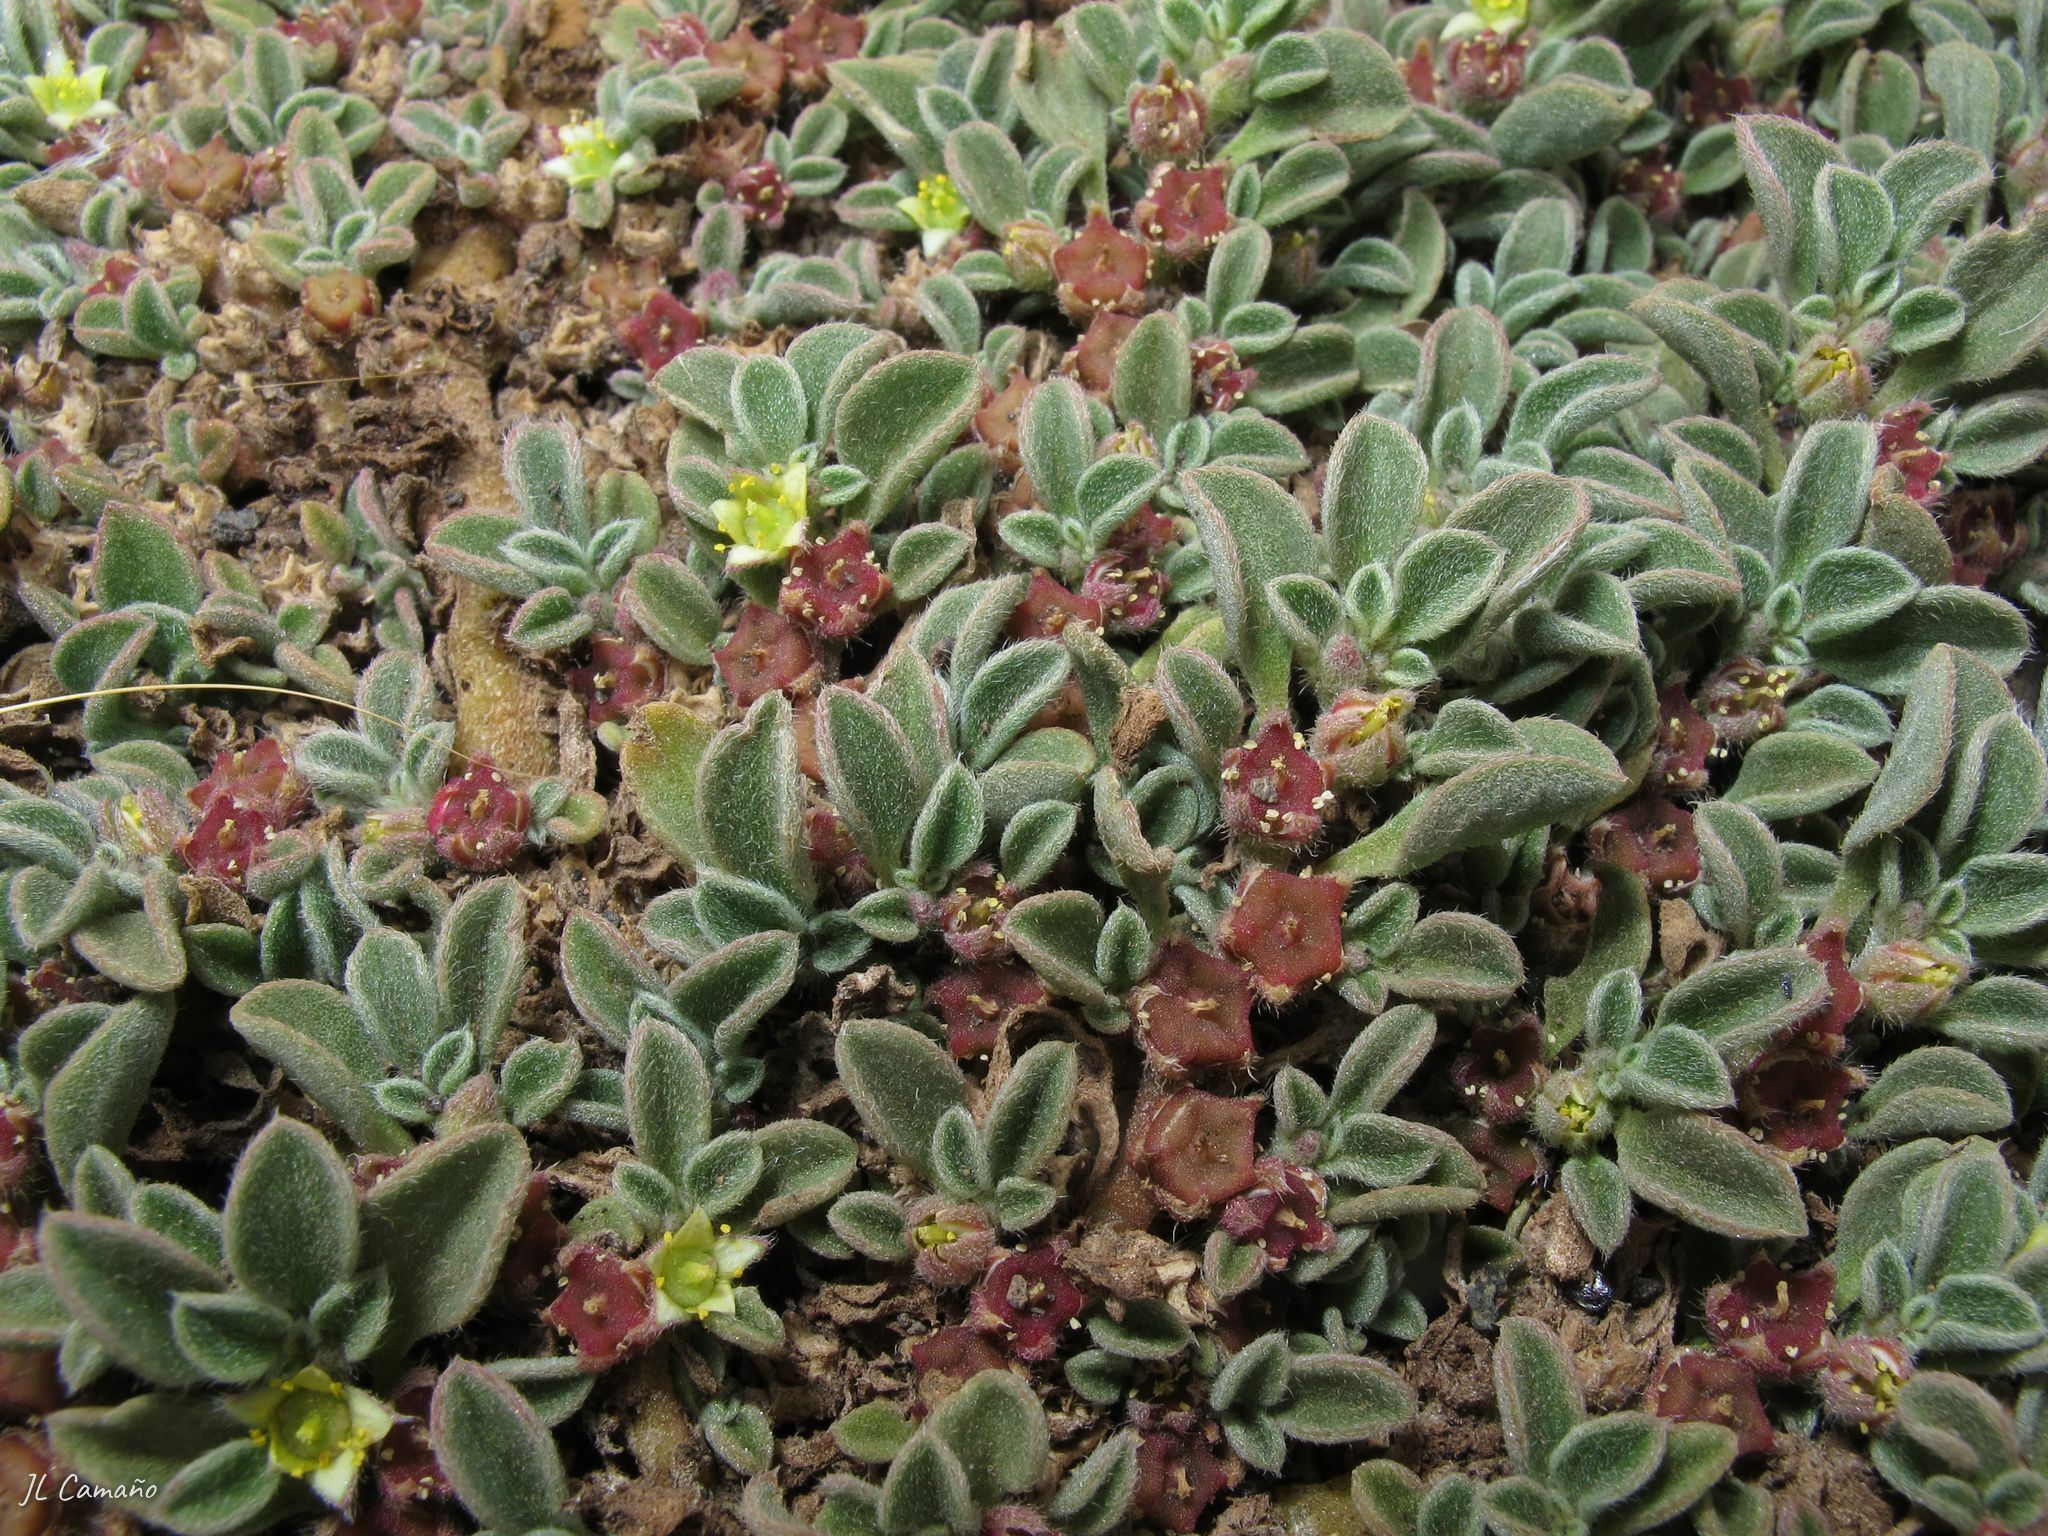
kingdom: Plantae
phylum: Tracheophyta
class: Magnoliopsida
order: Caryophyllales
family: Aizoaceae
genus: Aizoon
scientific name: Aizoon canariense
